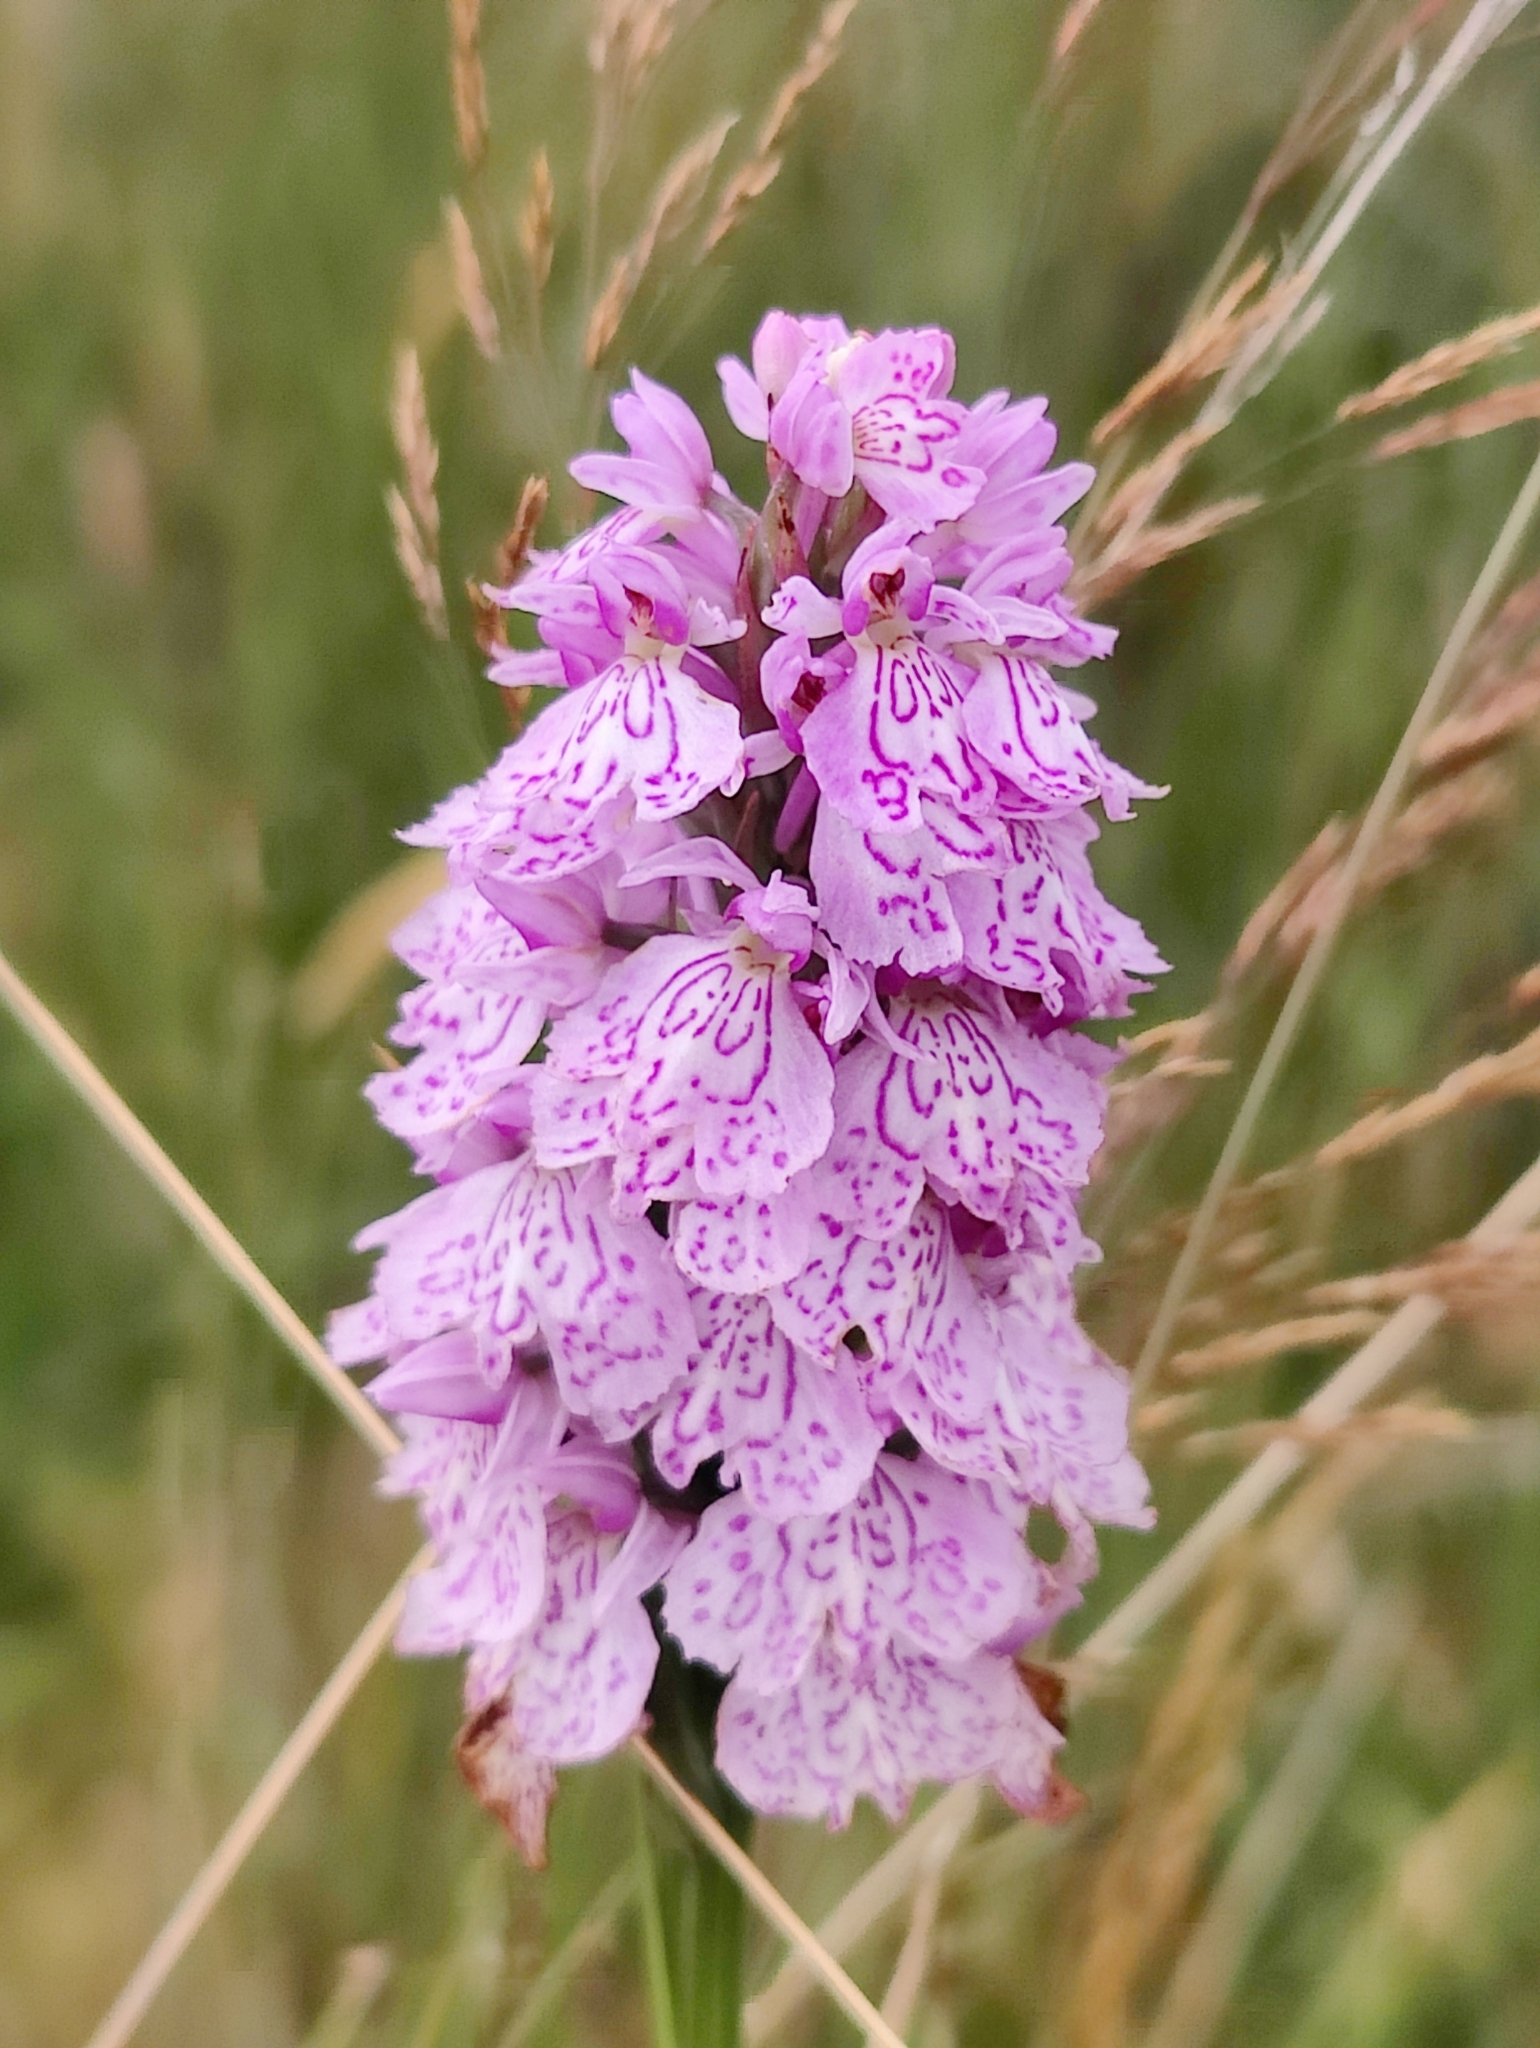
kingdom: Plantae
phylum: Tracheophyta
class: Liliopsida
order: Asparagales
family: Orchidaceae
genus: Dactylorhiza
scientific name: Dactylorhiza maculata
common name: Heath spotted-orchid
